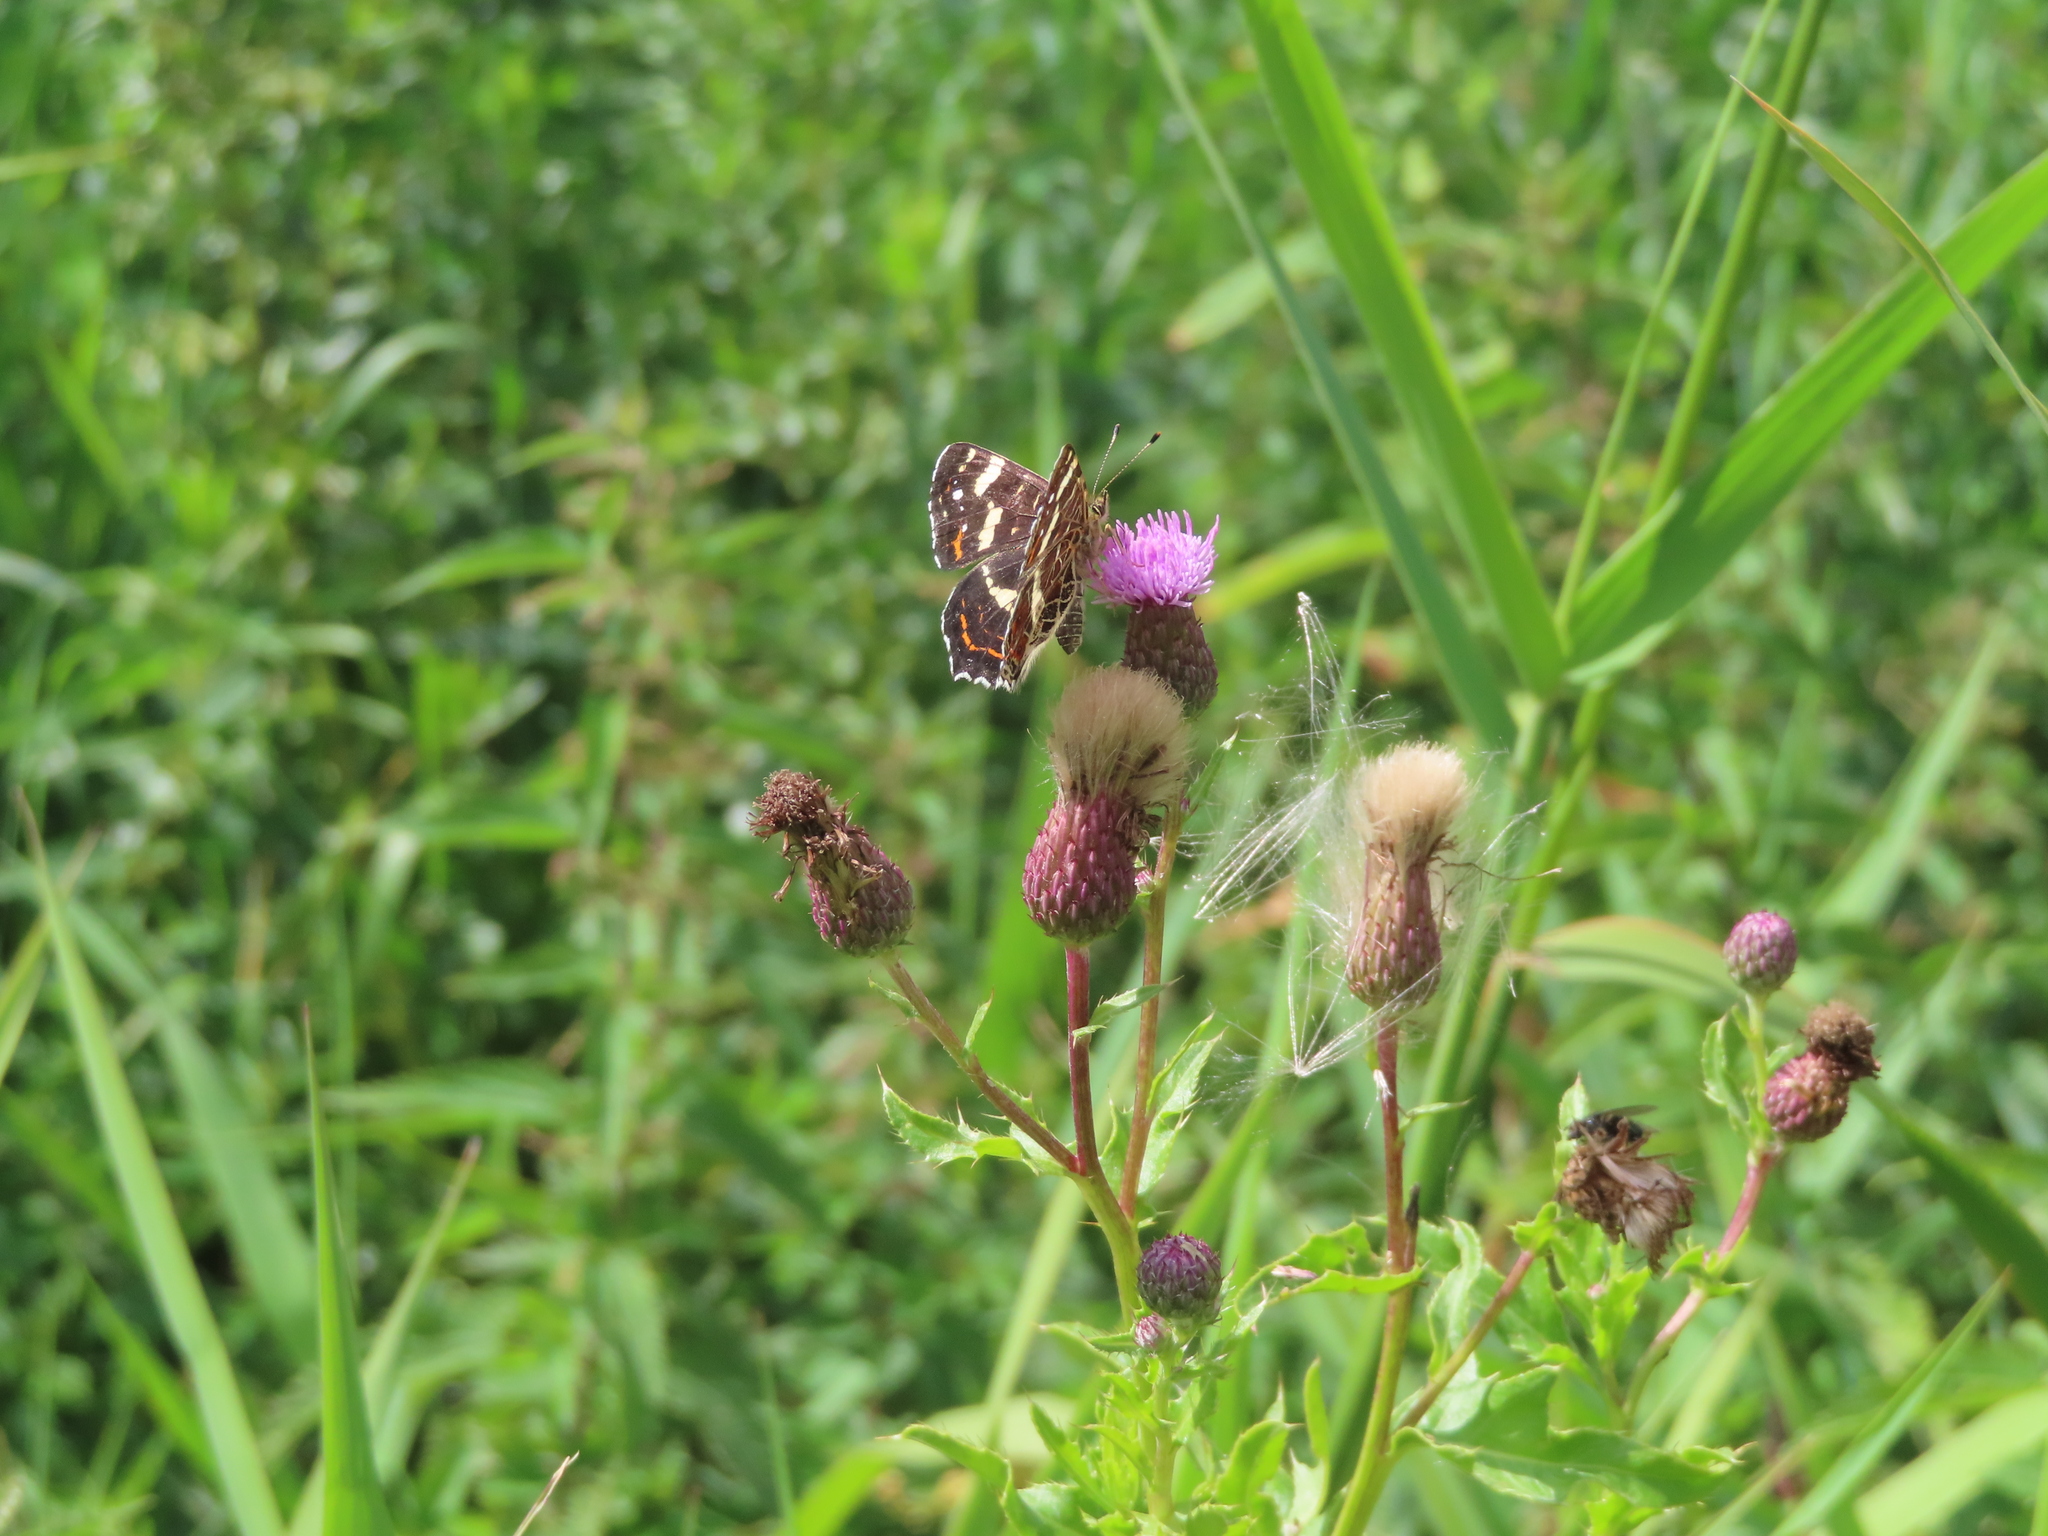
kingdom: Animalia
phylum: Arthropoda
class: Insecta
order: Lepidoptera
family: Nymphalidae
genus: Araschnia
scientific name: Araschnia levana
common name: Map butterfly
